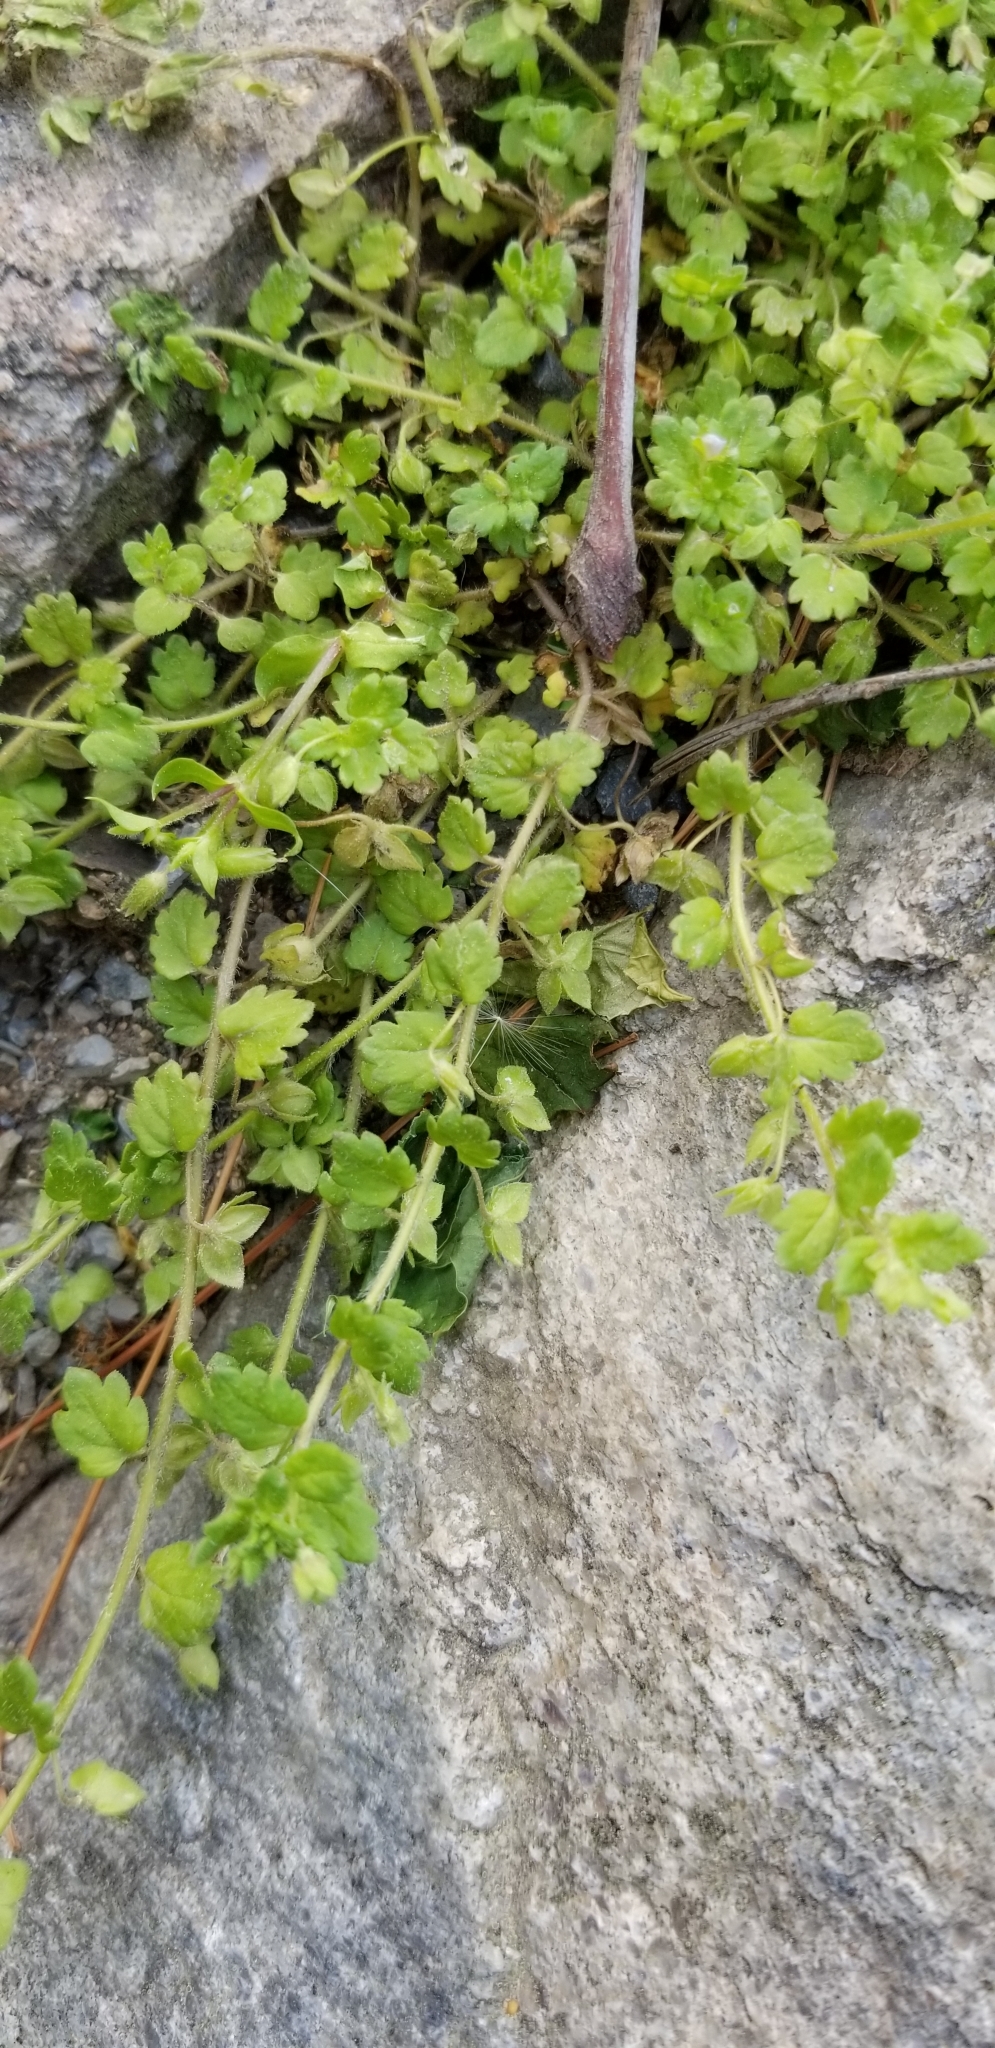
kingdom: Plantae
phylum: Tracheophyta
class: Magnoliopsida
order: Lamiales
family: Plantaginaceae
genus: Veronica
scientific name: Veronica polita
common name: Grey field-speedwell
